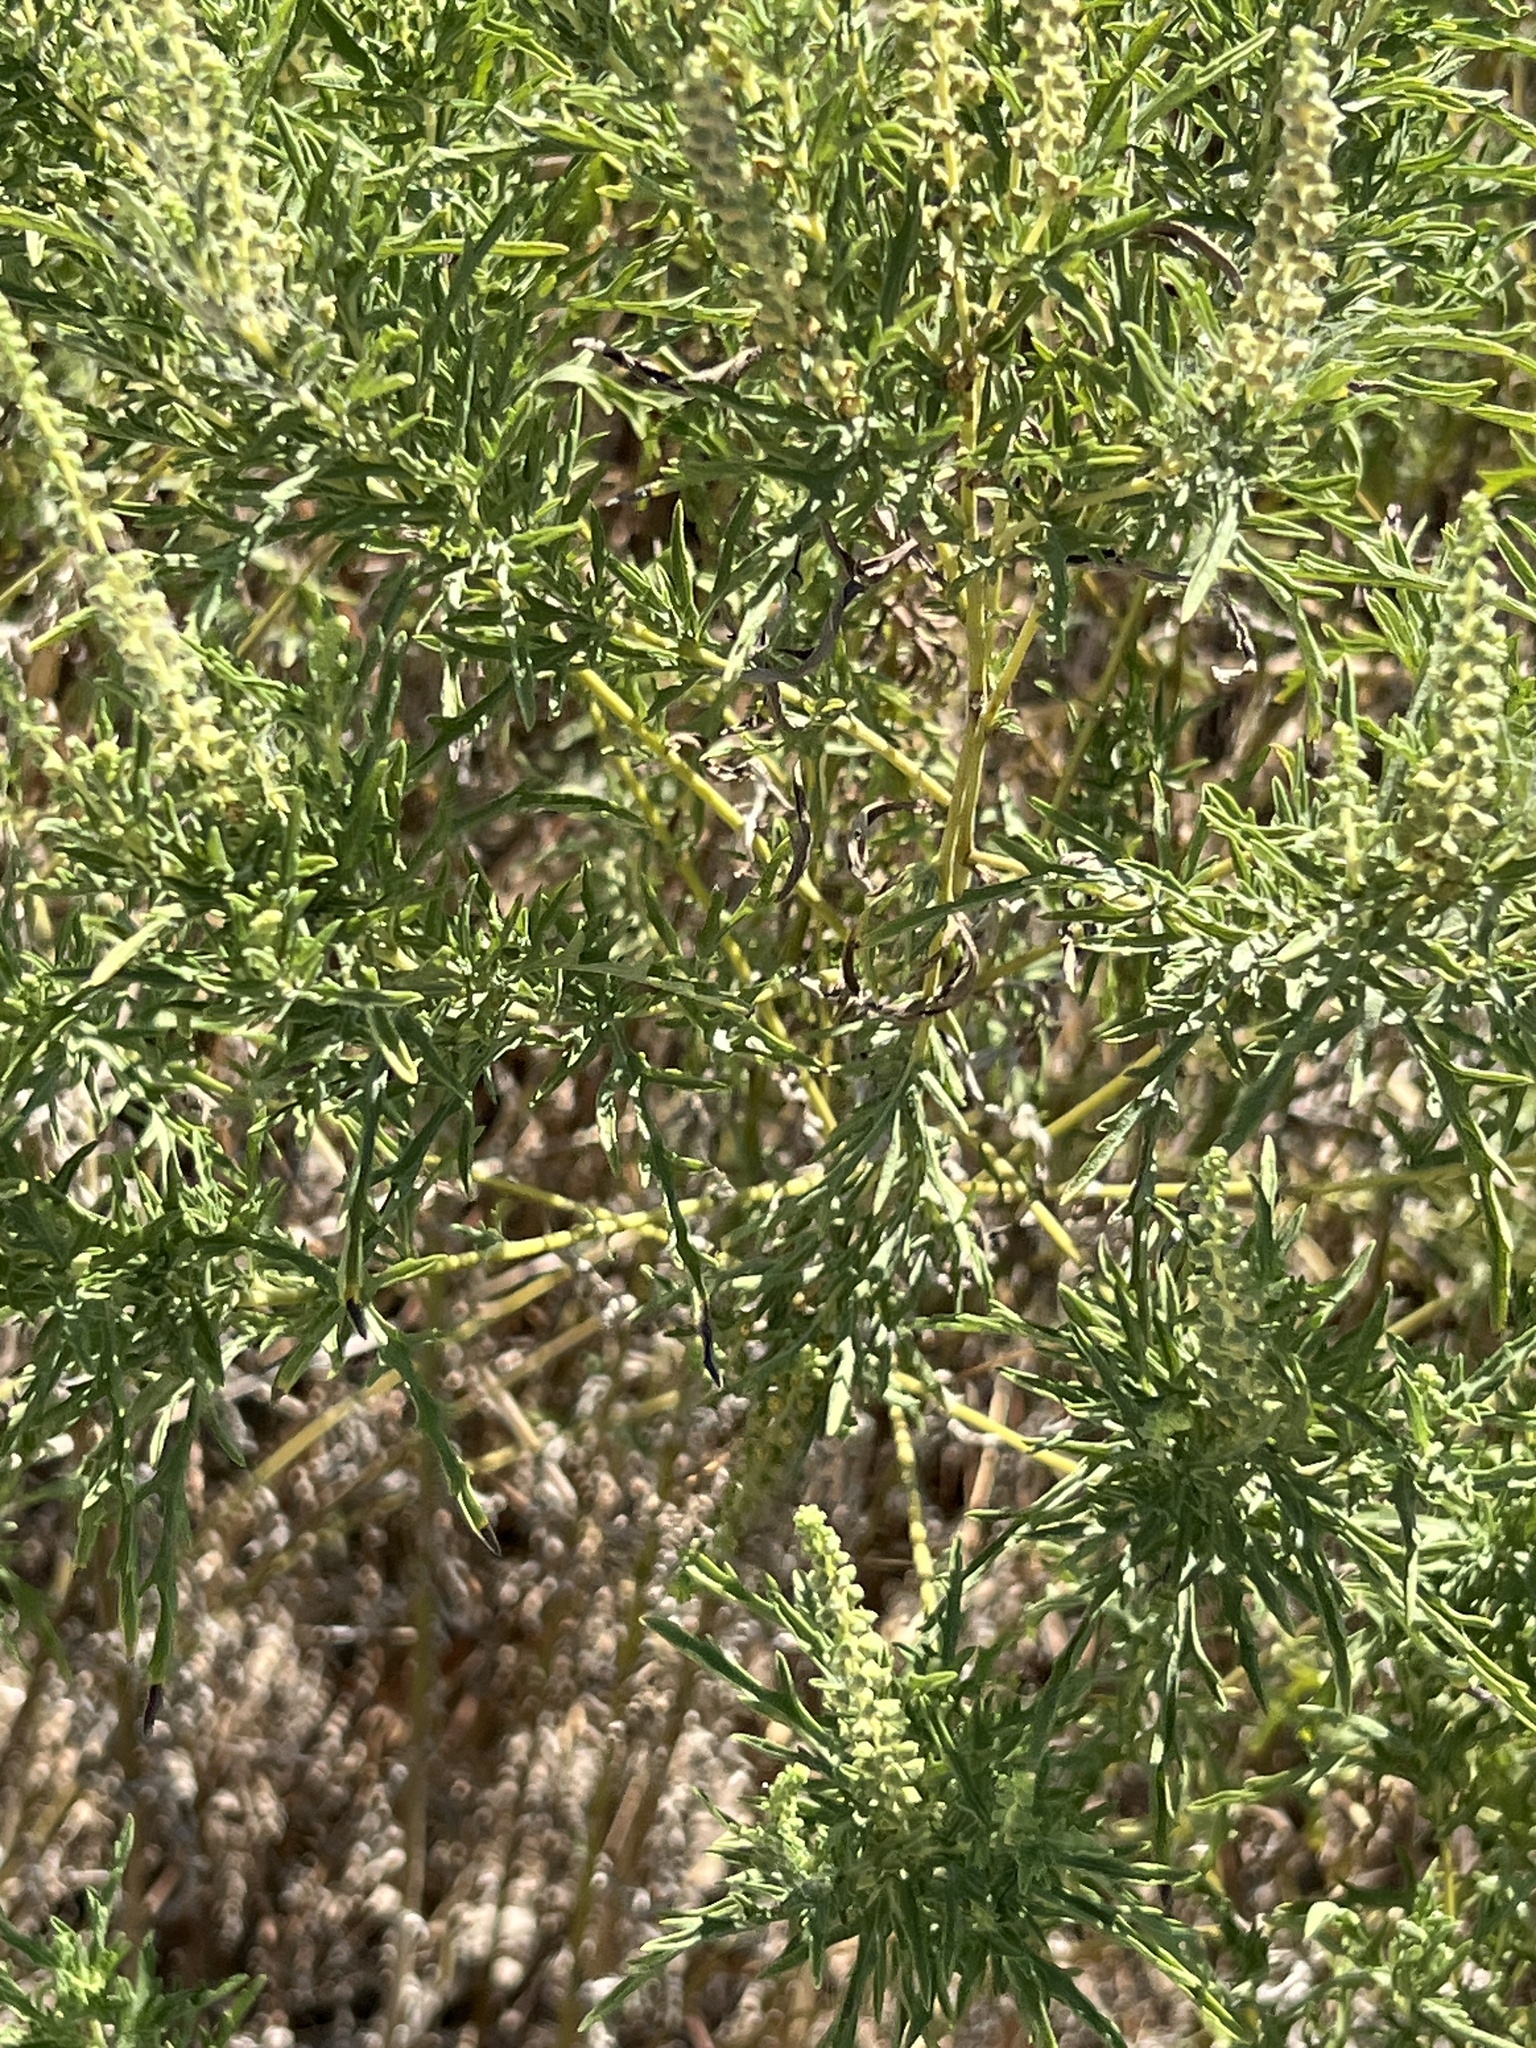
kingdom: Plantae
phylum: Tracheophyta
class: Magnoliopsida
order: Asterales
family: Asteraceae
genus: Ambrosia
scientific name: Ambrosia psilostachya
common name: Perennial ragweed
